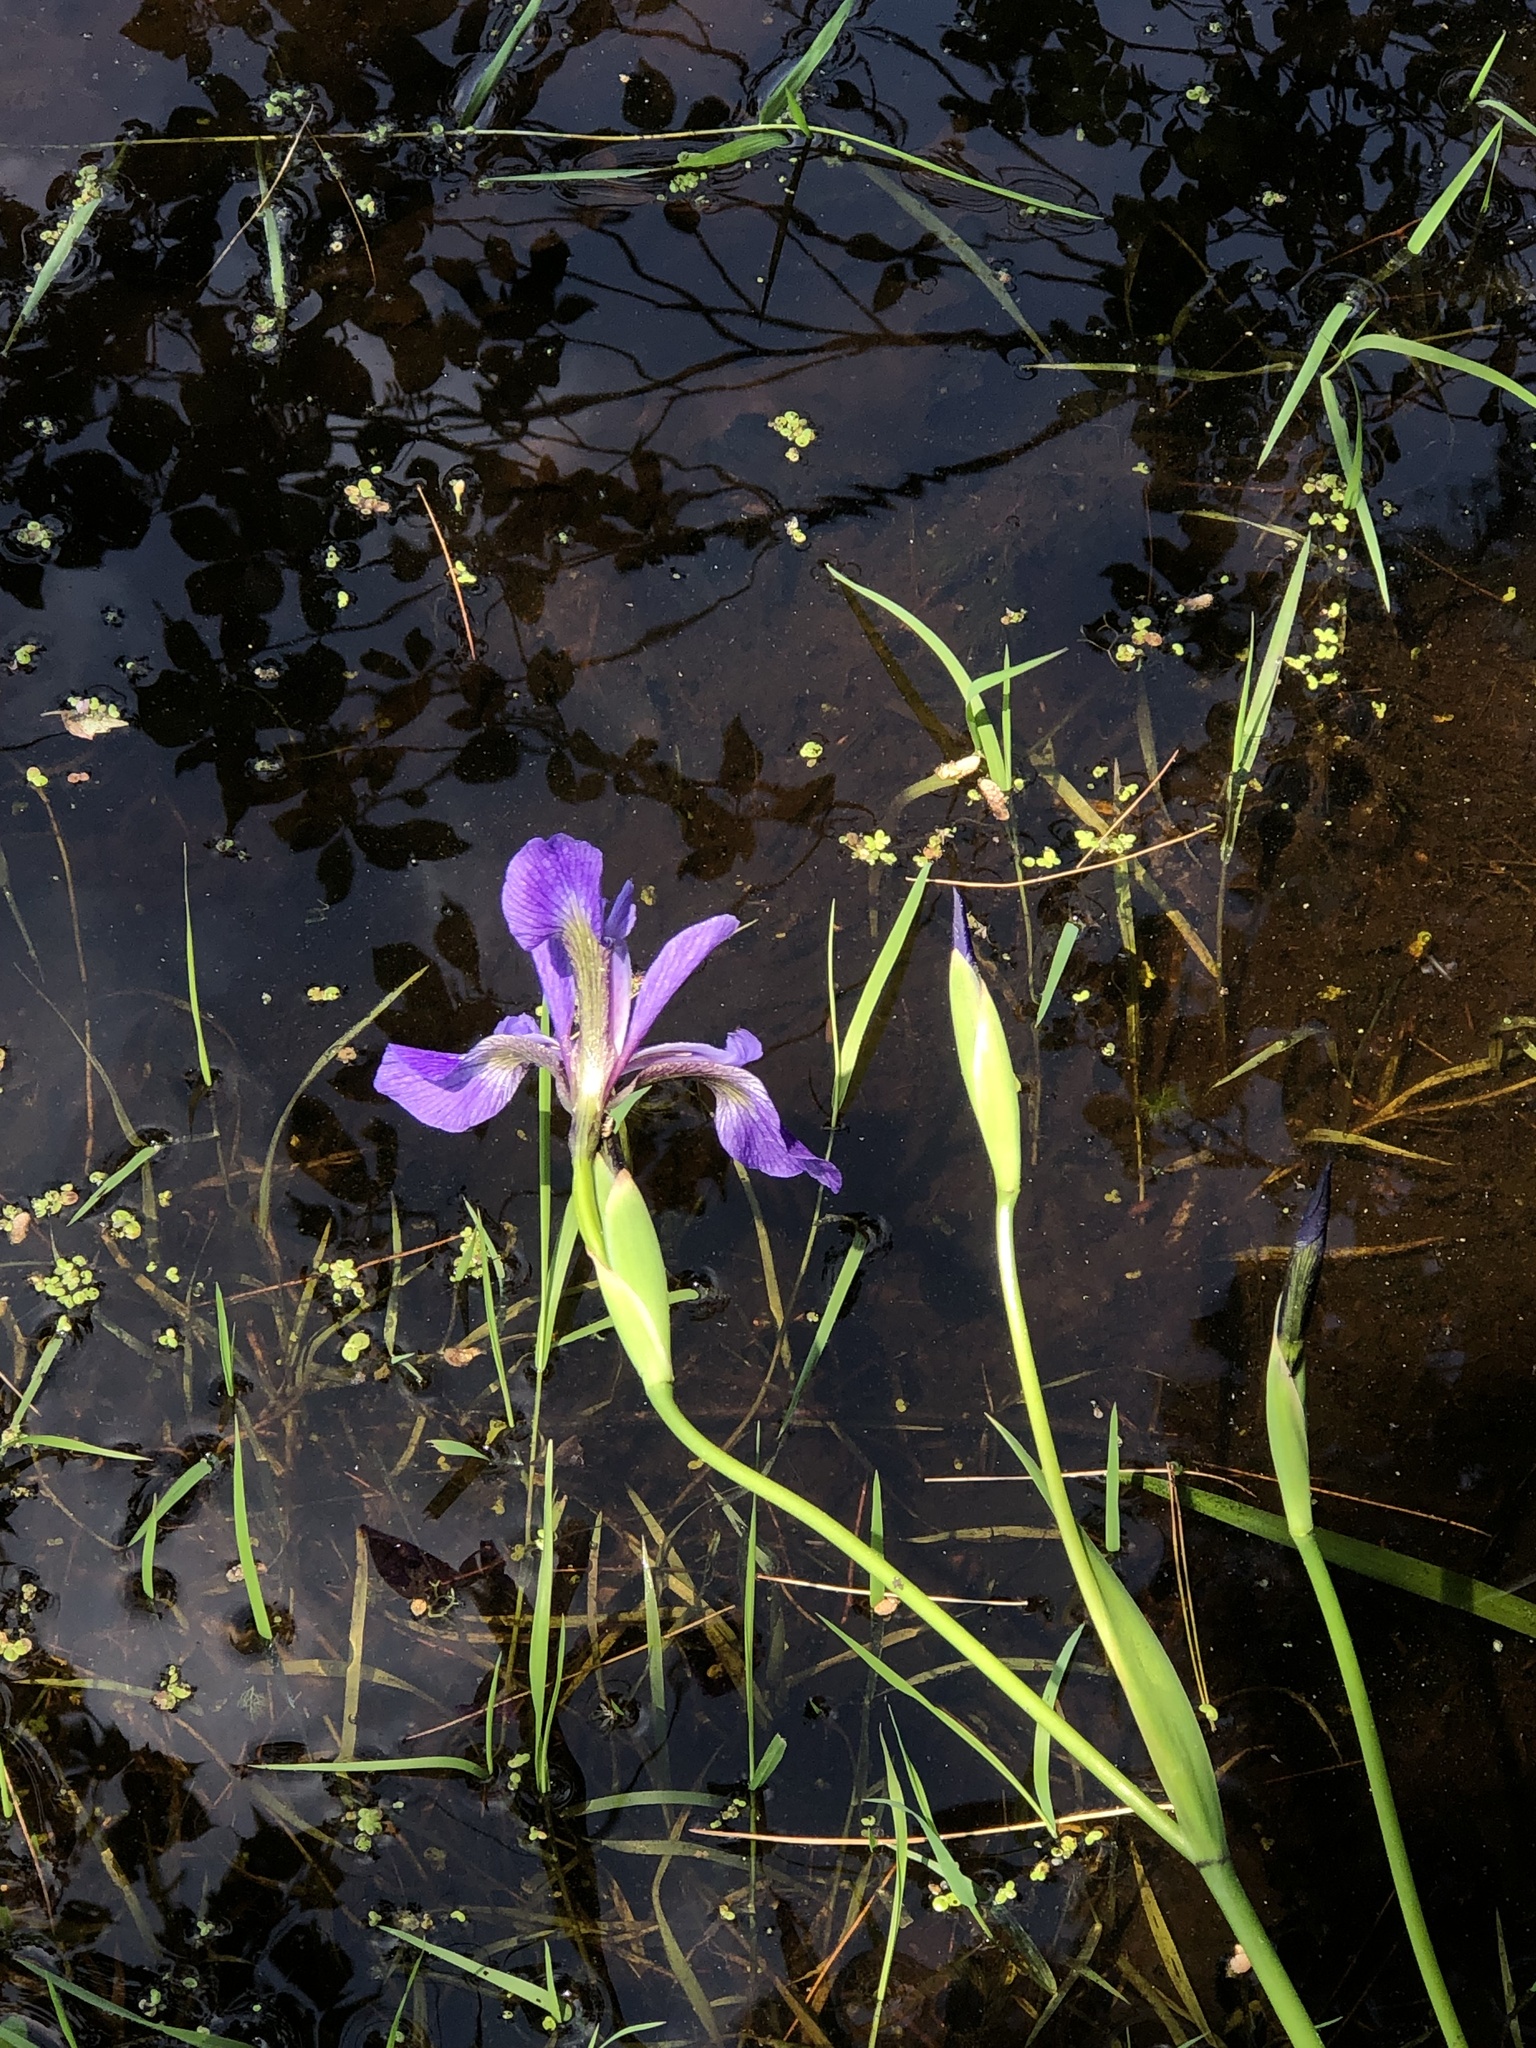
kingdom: Plantae
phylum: Tracheophyta
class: Liliopsida
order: Asparagales
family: Iridaceae
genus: Iris
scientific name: Iris versicolor
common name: Purple iris
